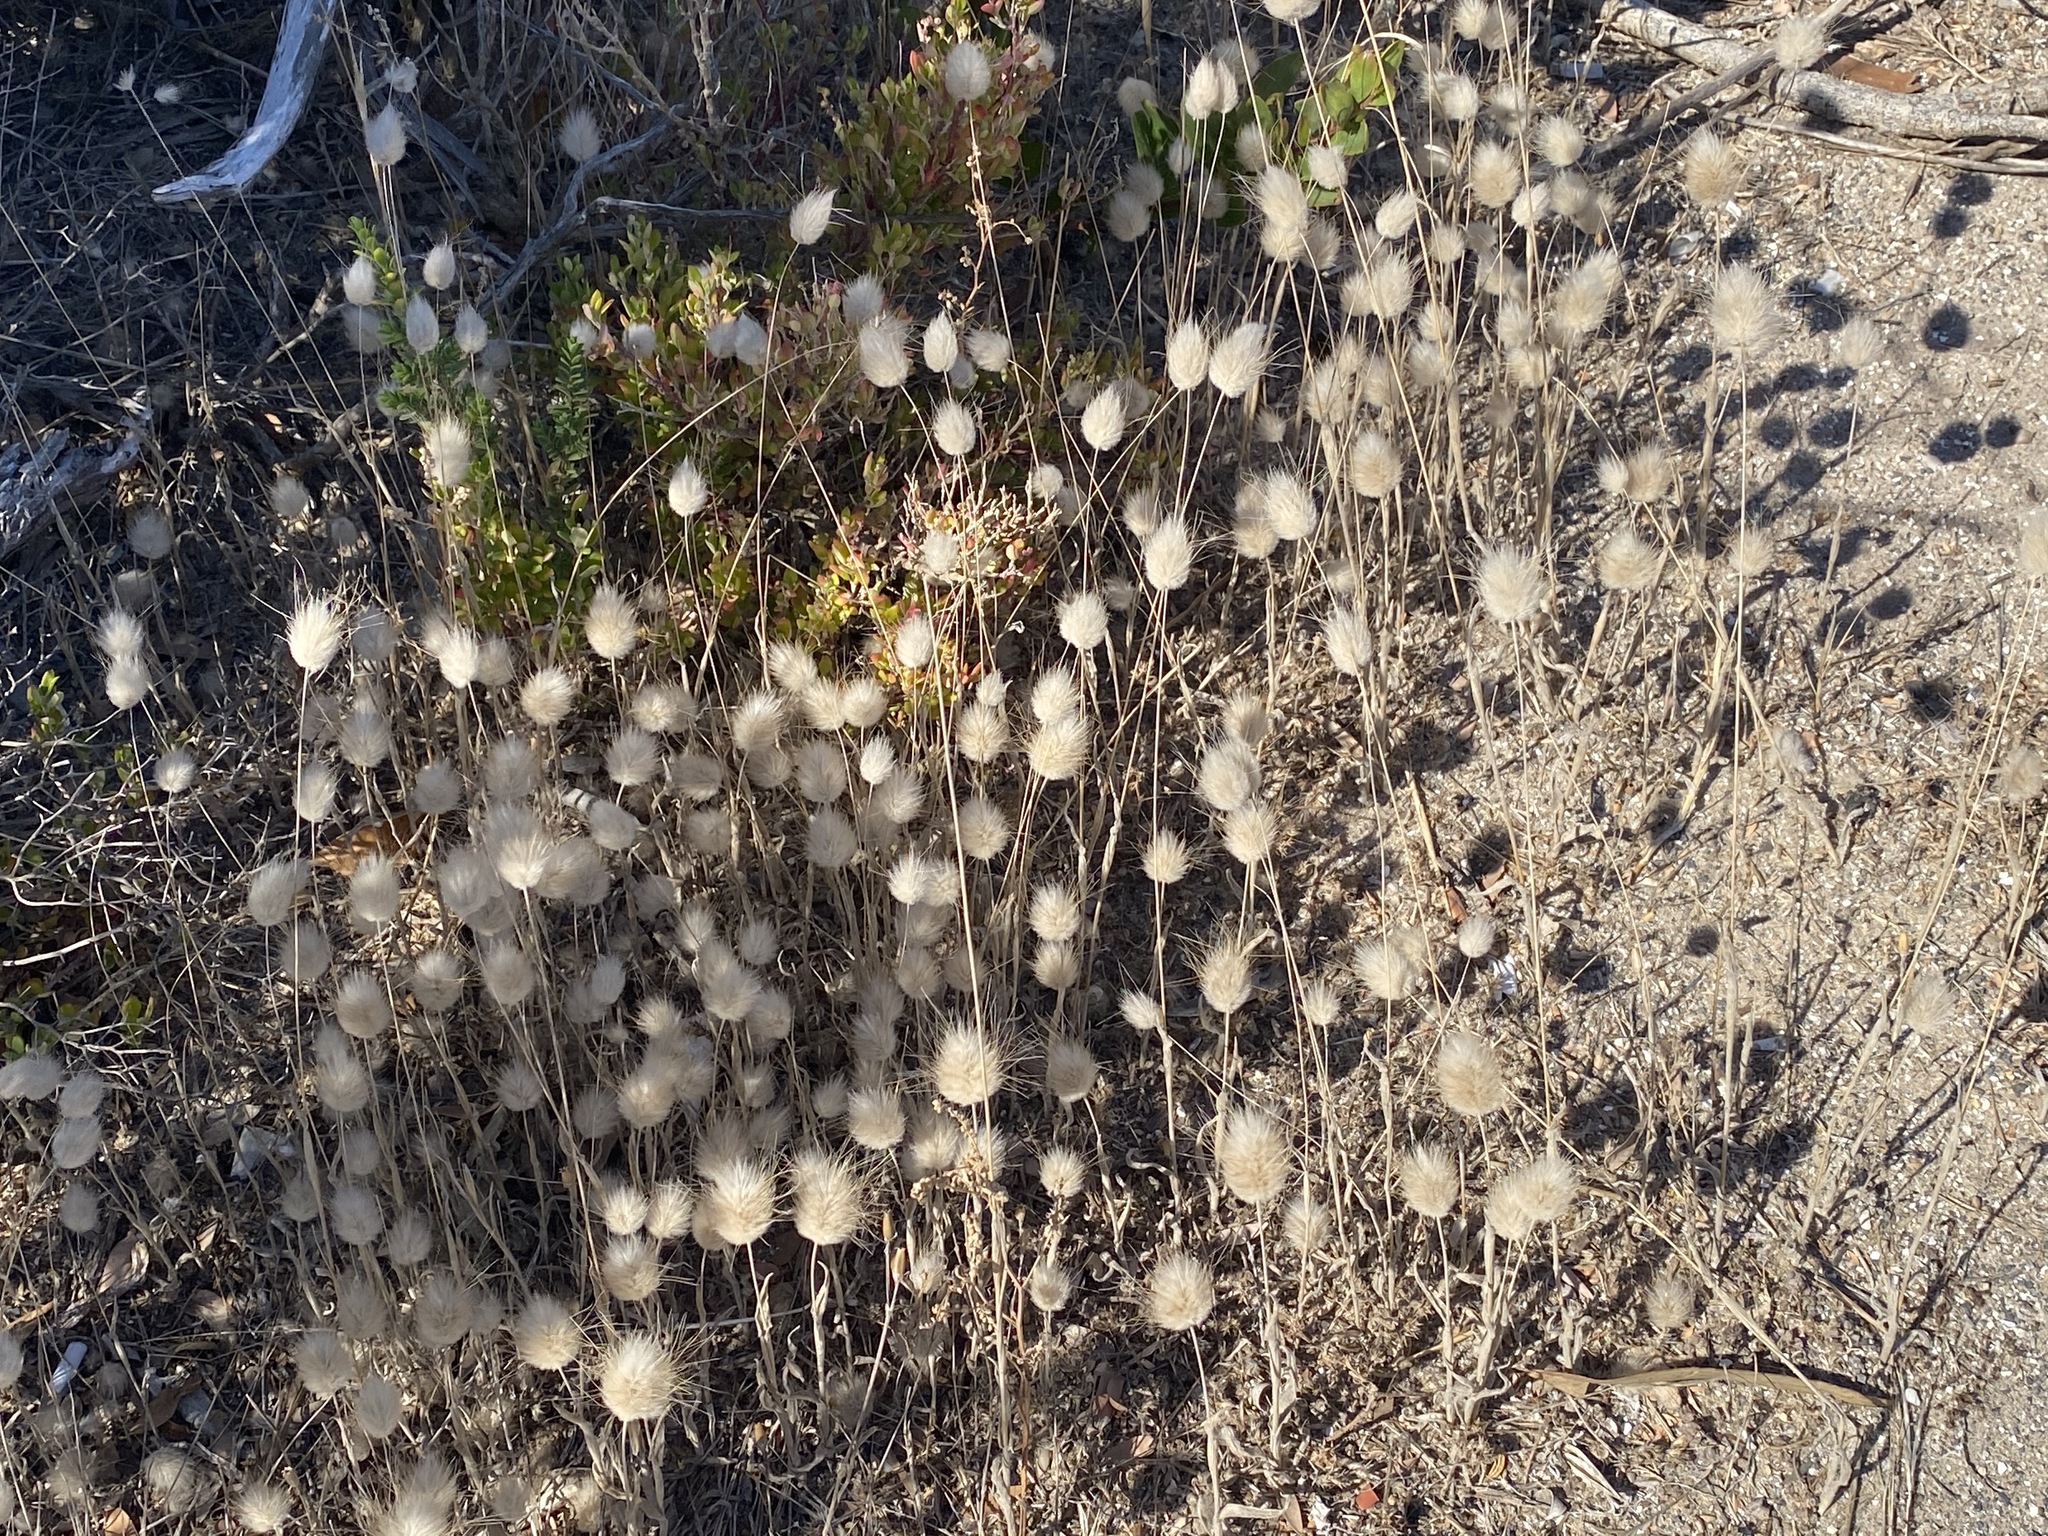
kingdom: Plantae
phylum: Tracheophyta
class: Liliopsida
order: Poales
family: Poaceae
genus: Lagurus
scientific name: Lagurus ovatus
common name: Hare's-tail
